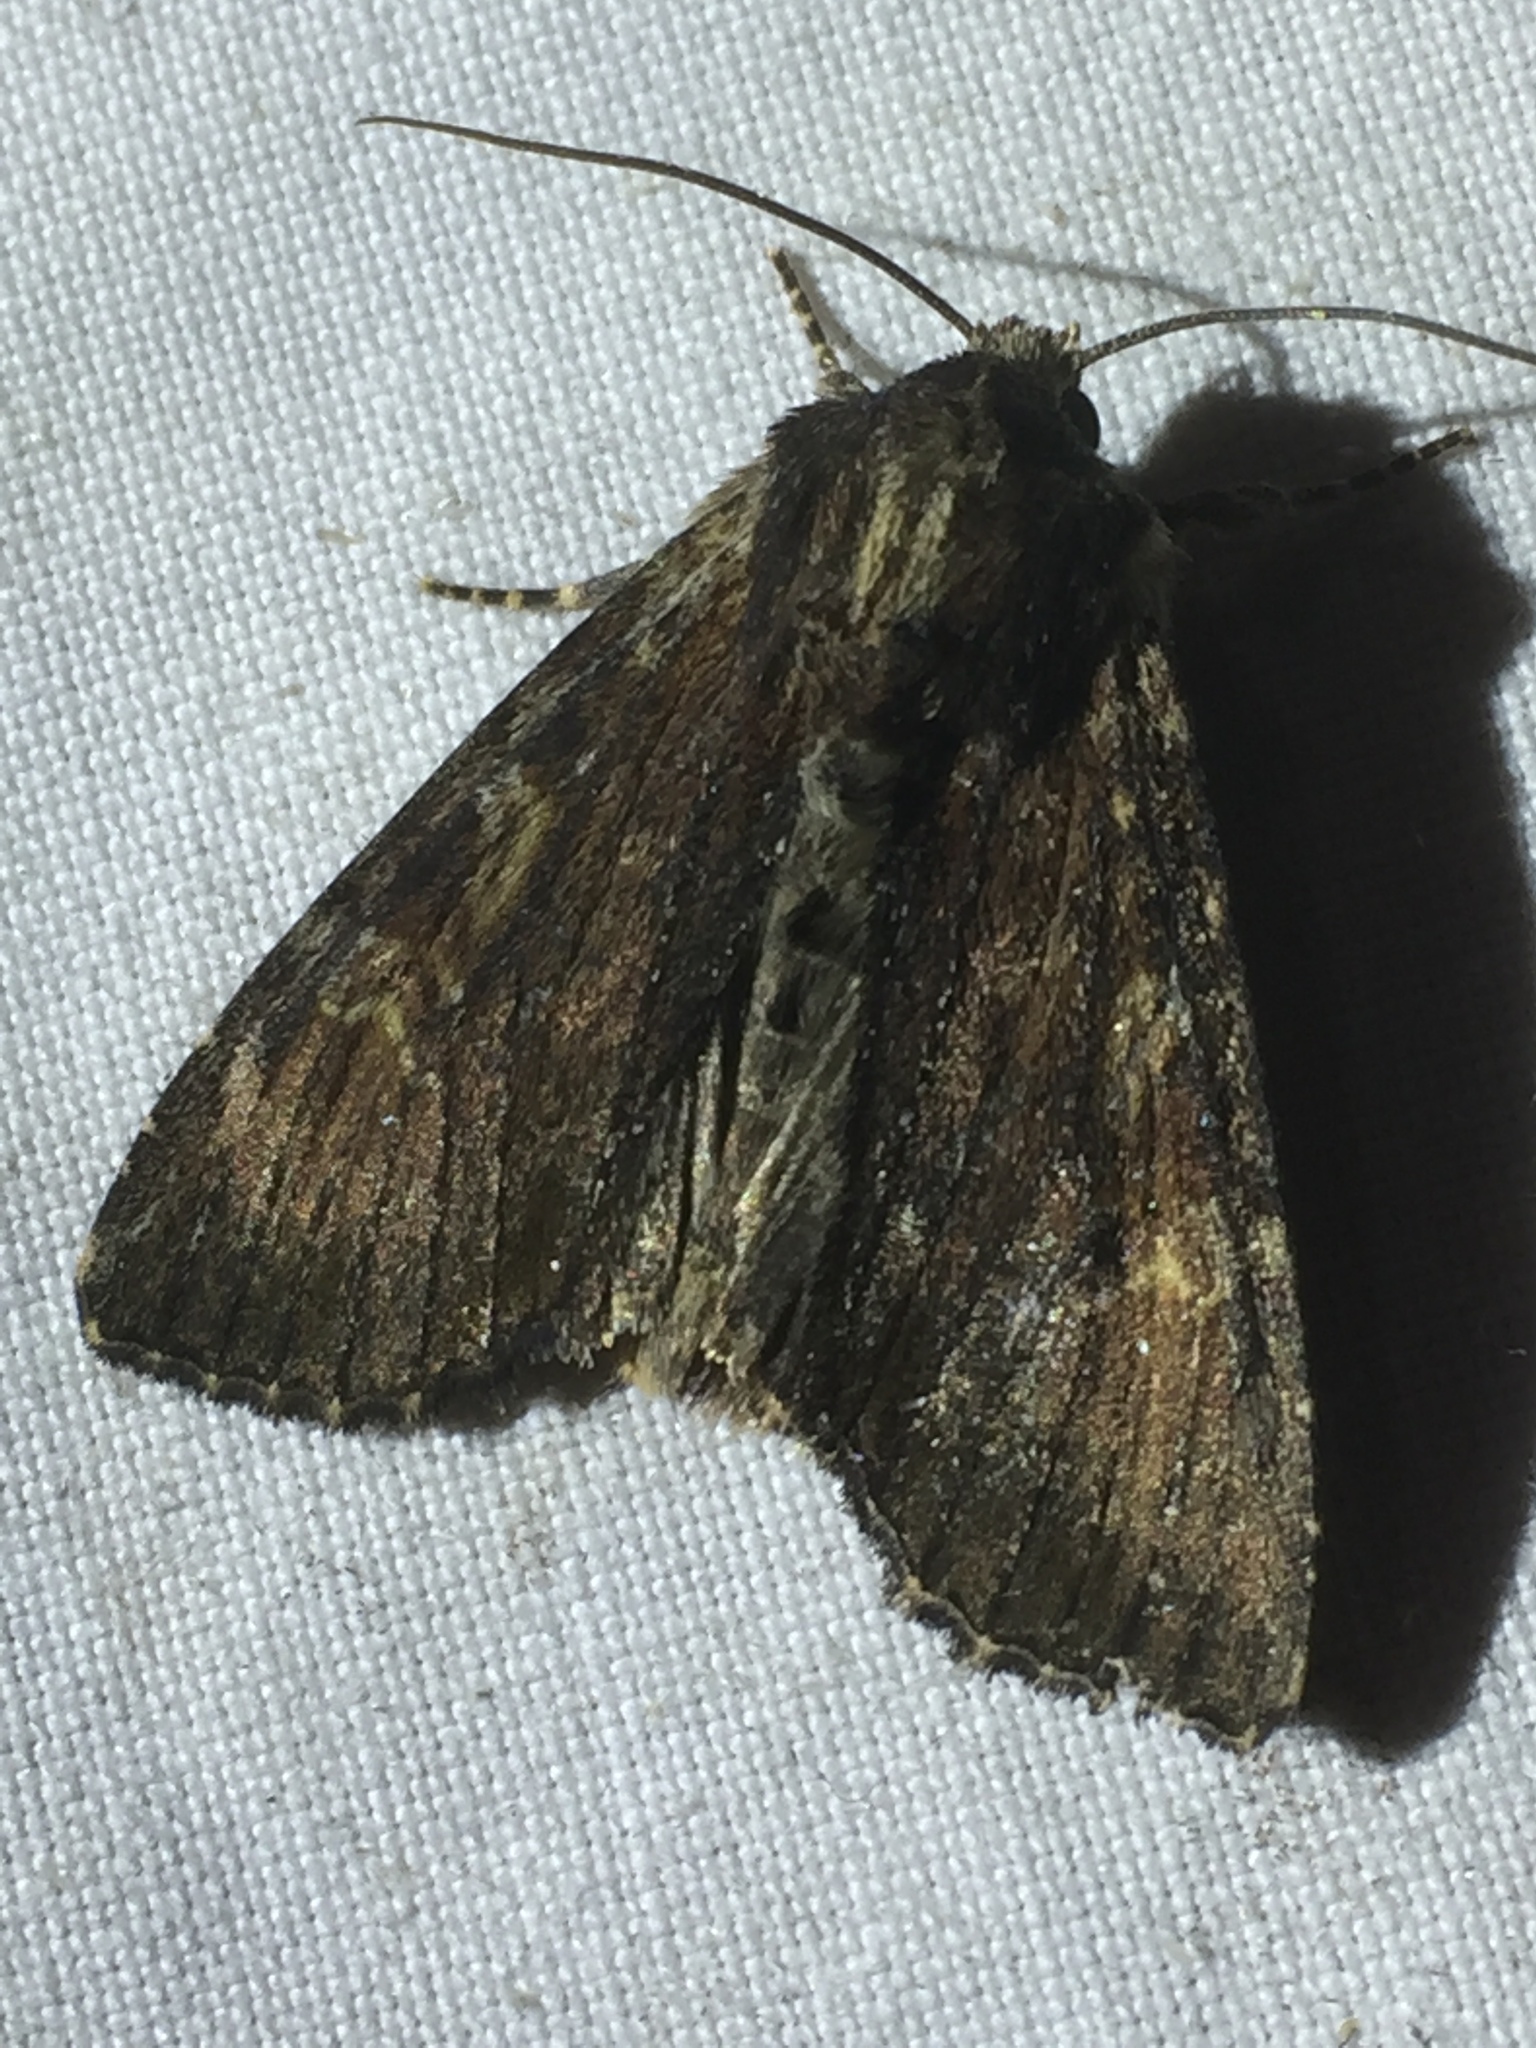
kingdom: Animalia
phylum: Arthropoda
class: Insecta
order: Lepidoptera
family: Noctuidae
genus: Apamea
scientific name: Apamea crenata
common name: Clouded-bordered brindle
